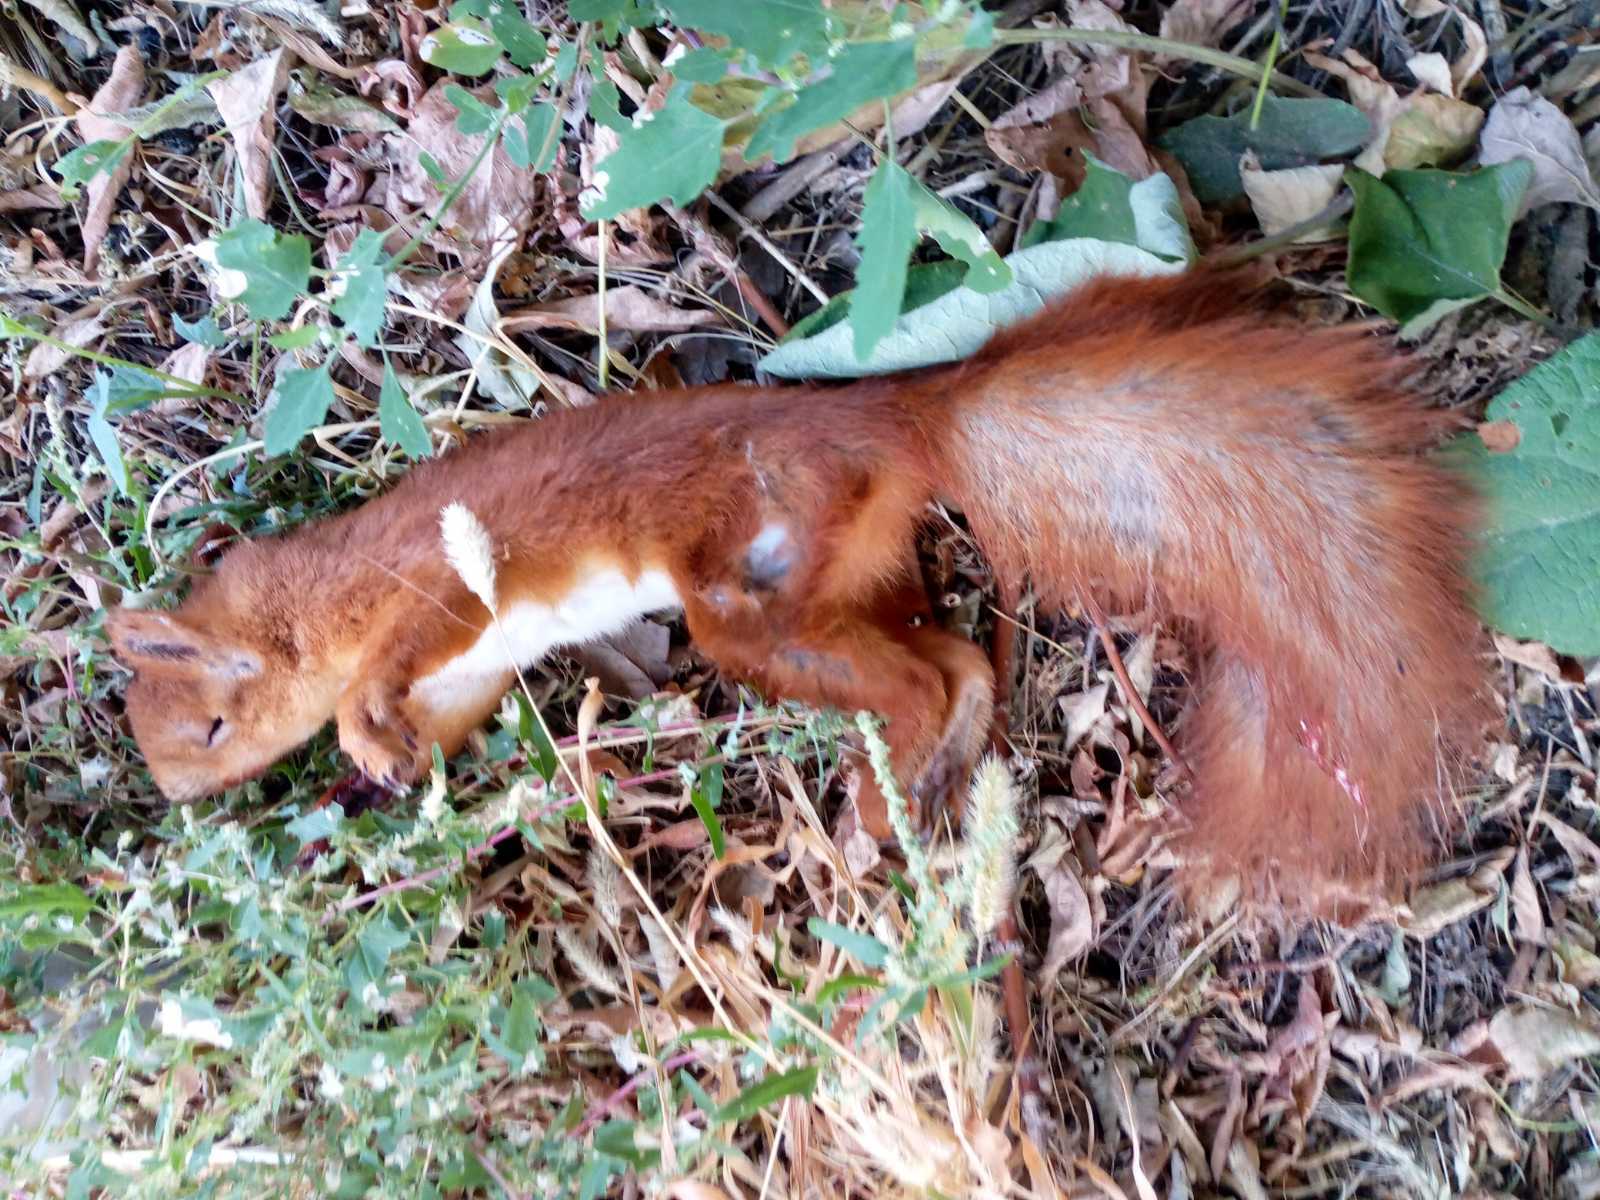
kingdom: Animalia
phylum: Chordata
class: Mammalia
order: Rodentia
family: Sciuridae
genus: Sciurus
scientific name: Sciurus vulgaris
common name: Eurasian red squirrel
